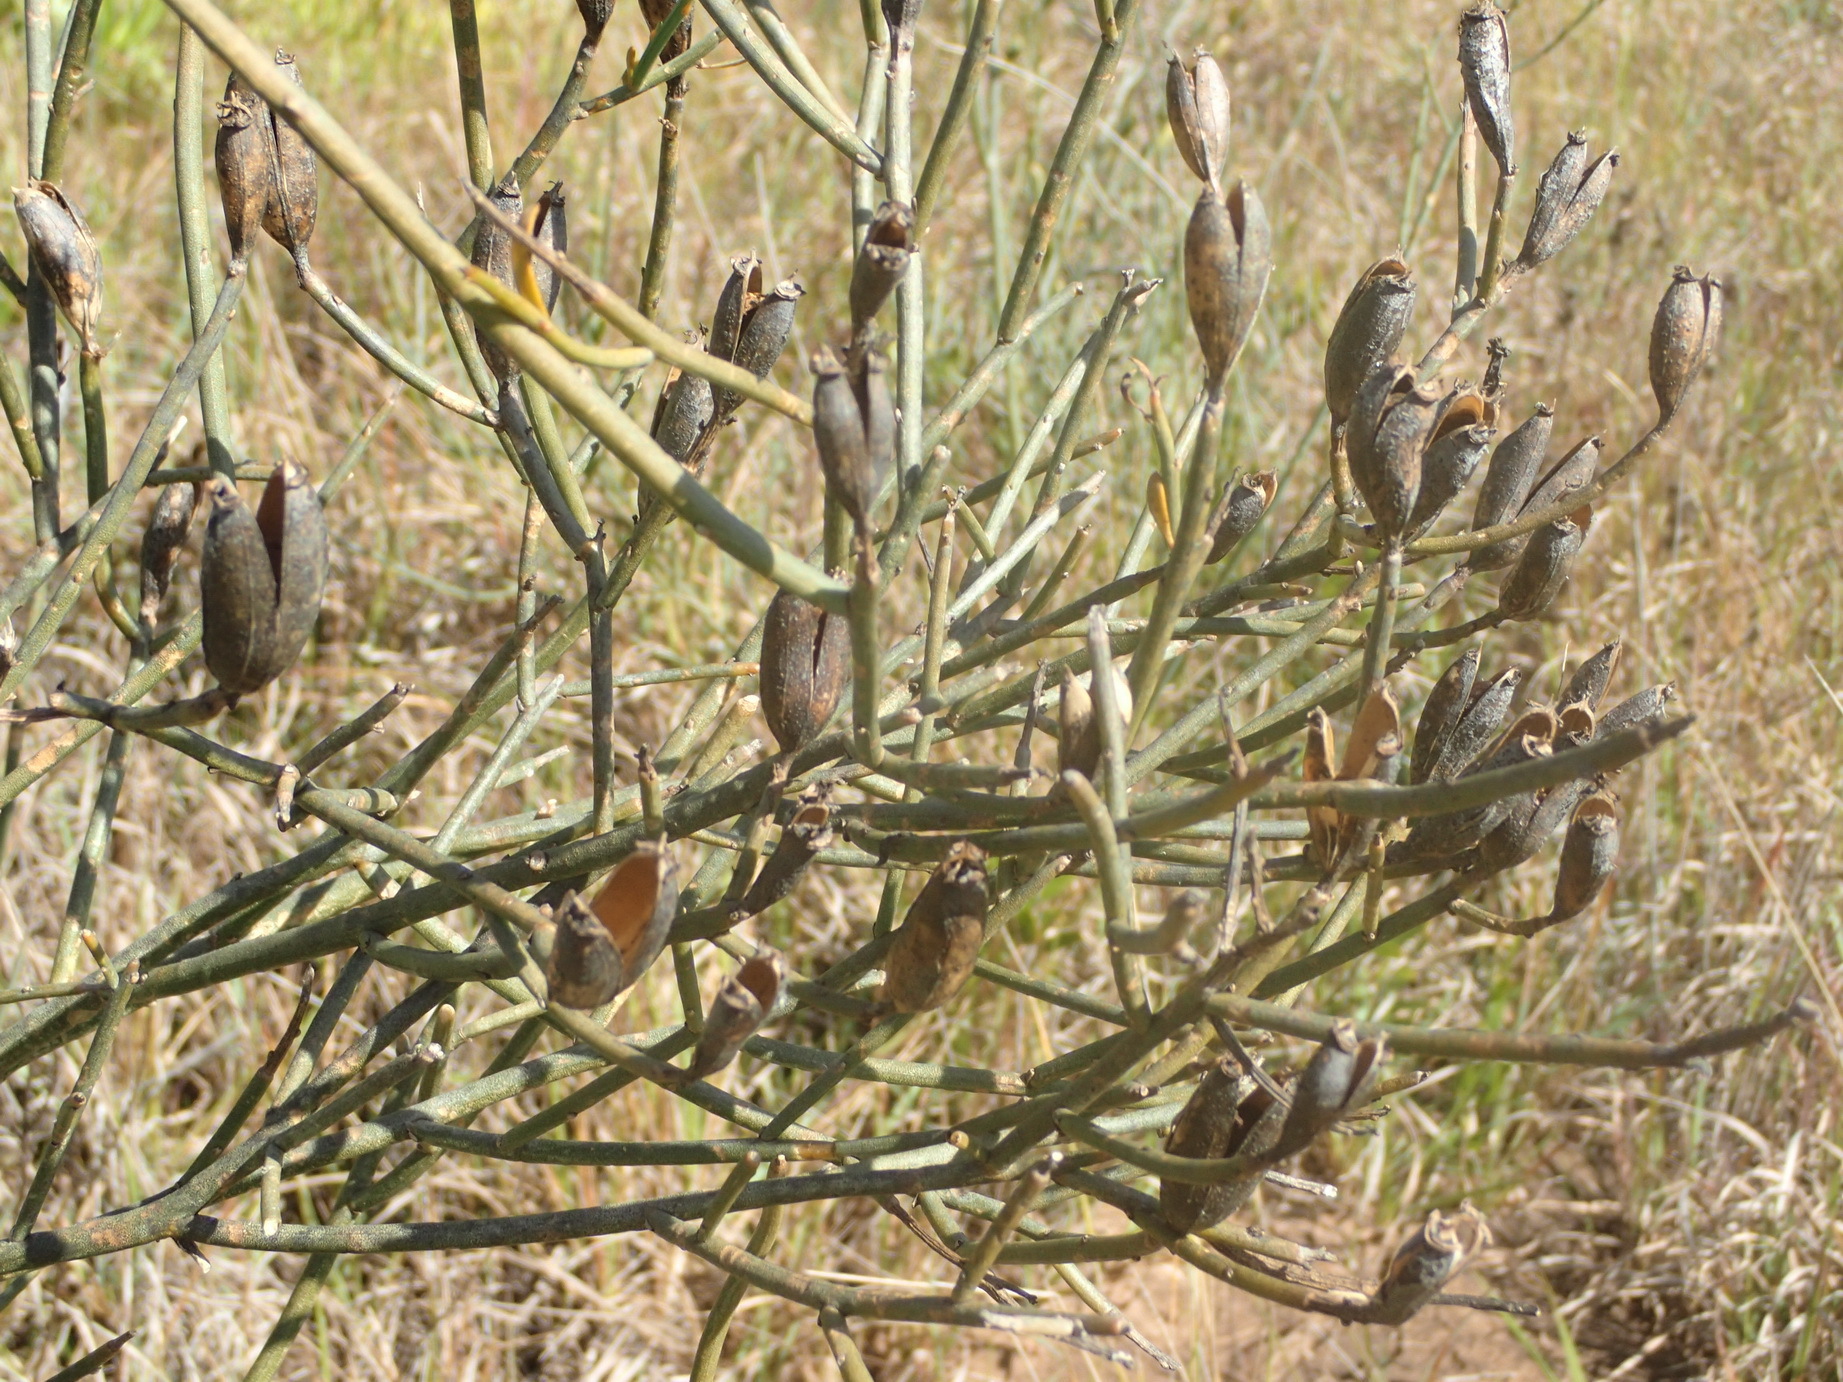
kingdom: Plantae
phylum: Tracheophyta
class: Magnoliopsida
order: Solanales
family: Montiniaceae
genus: Montinia
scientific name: Montinia caryophyllacea
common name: Wild clove-bush
